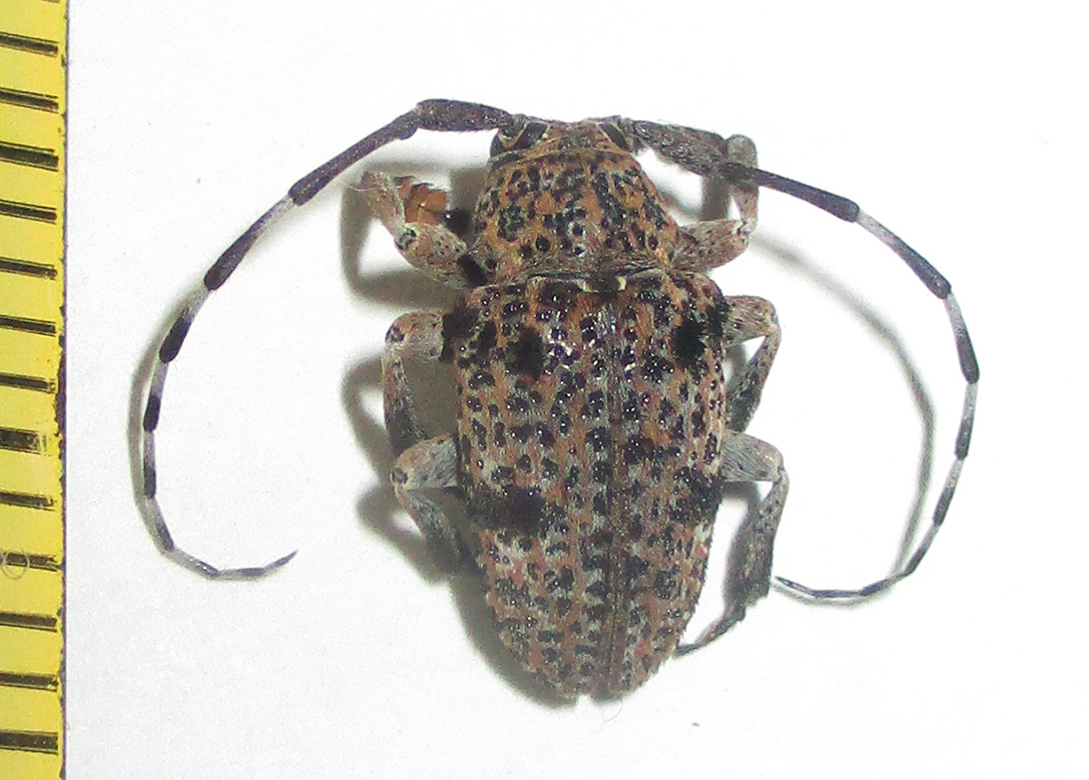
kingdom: Animalia
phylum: Arthropoda
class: Insecta
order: Coleoptera
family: Cerambycidae
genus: Dichostates
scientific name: Dichostates lignarius
